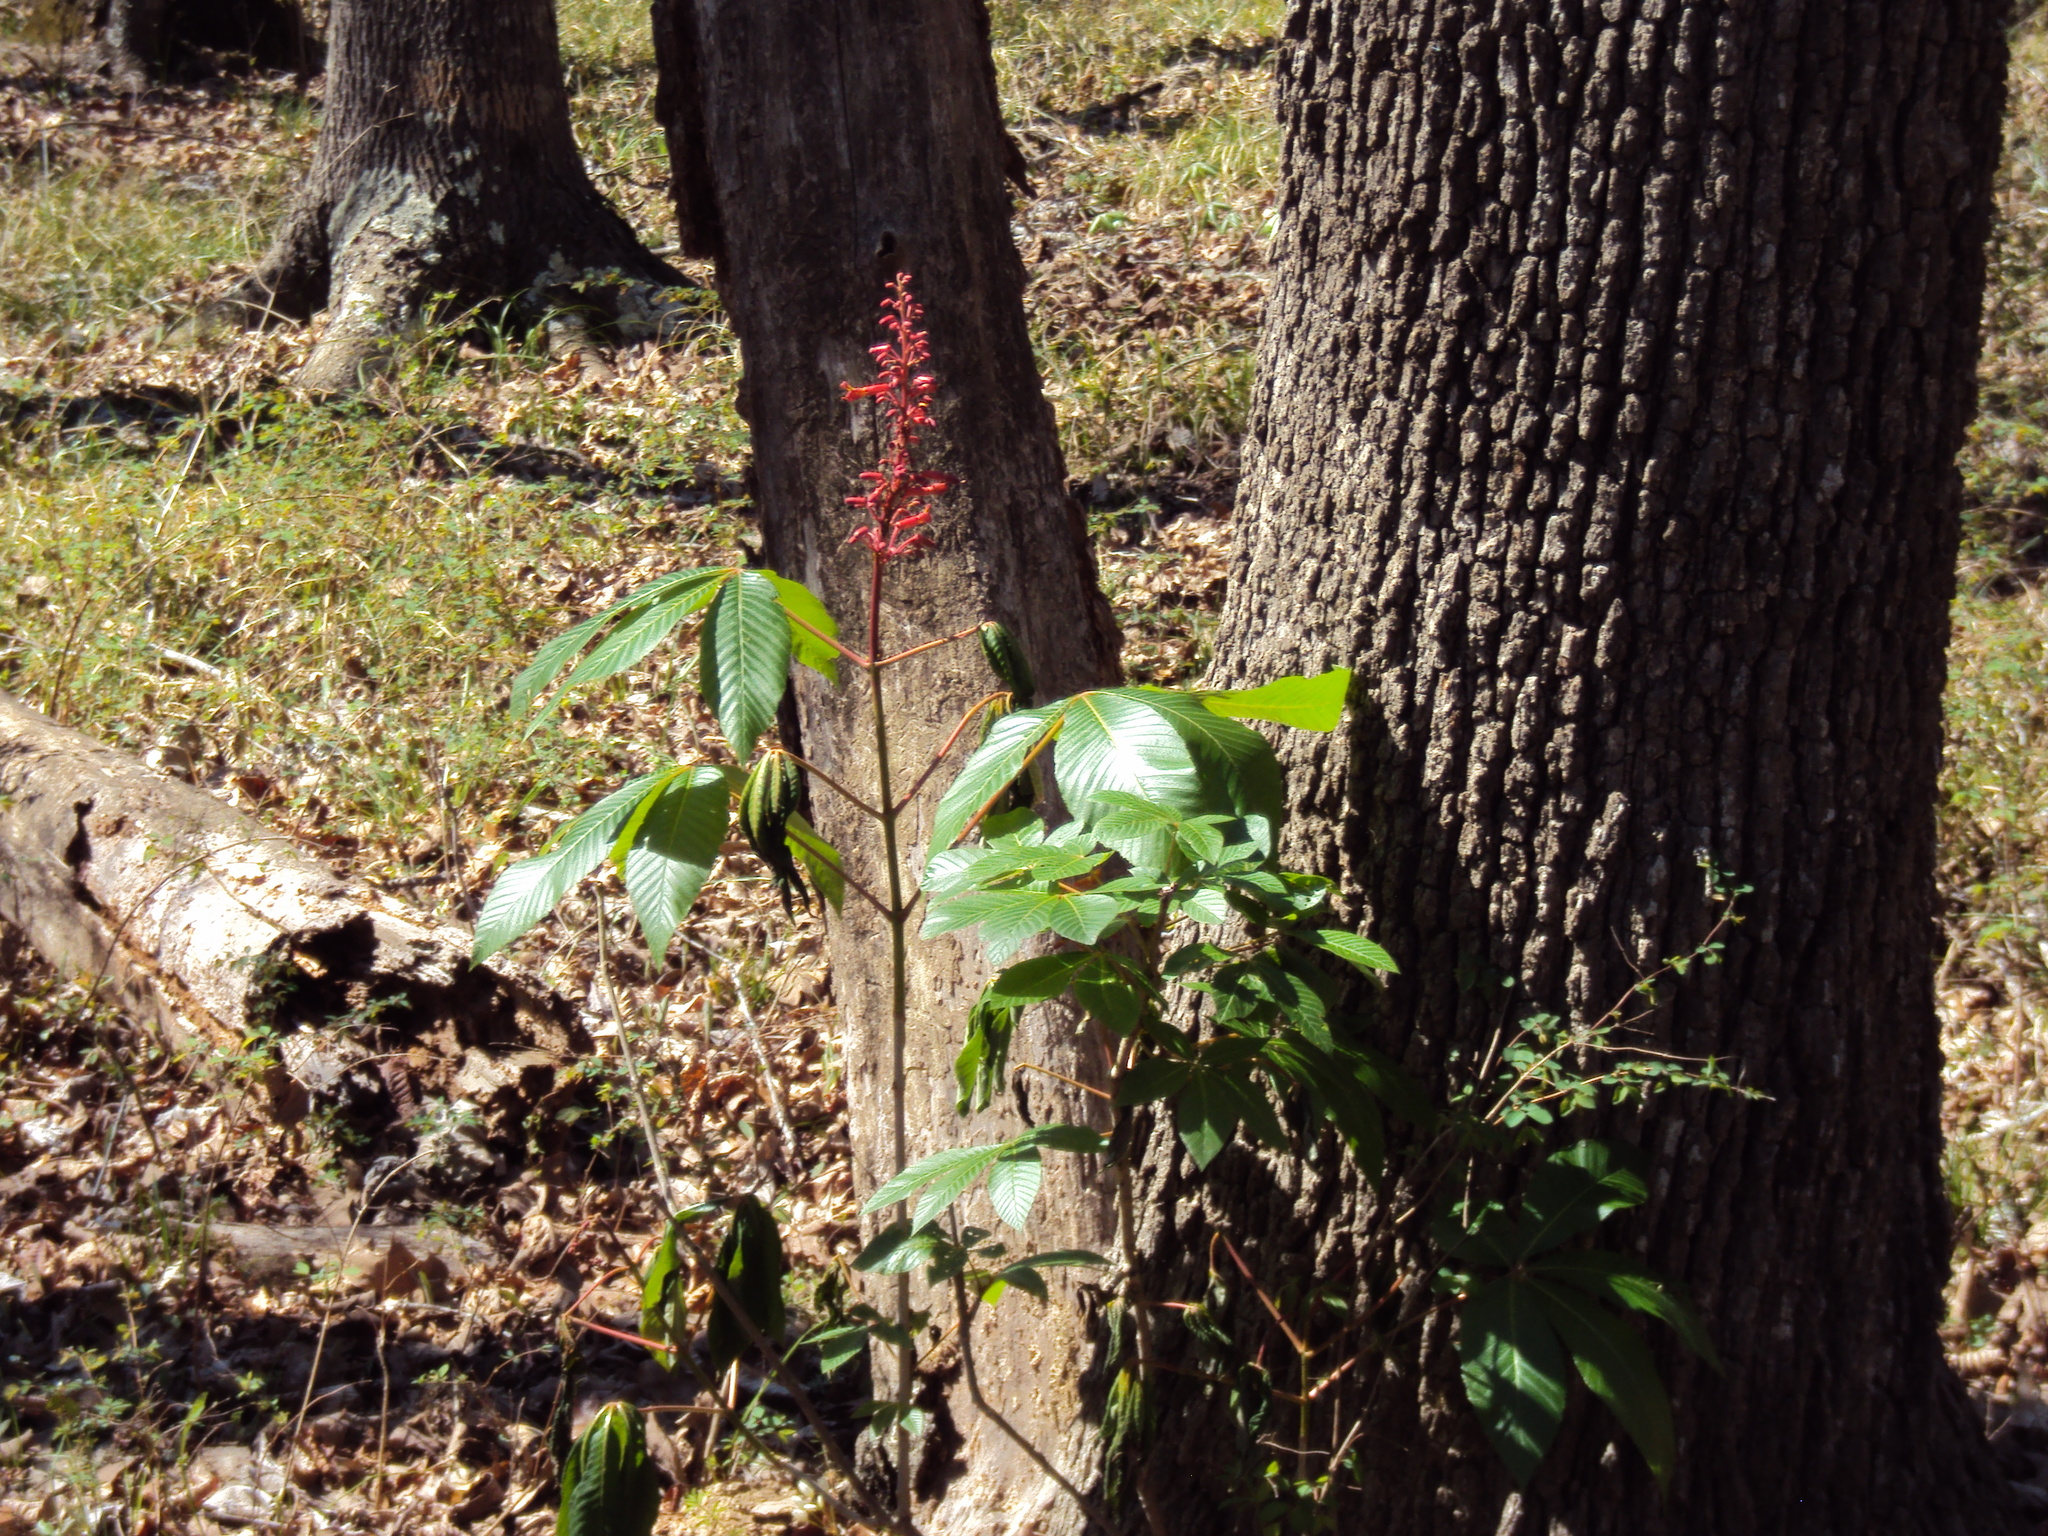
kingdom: Plantae
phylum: Tracheophyta
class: Magnoliopsida
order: Sapindales
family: Sapindaceae
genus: Aesculus
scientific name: Aesculus pavia
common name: Red buckeye
